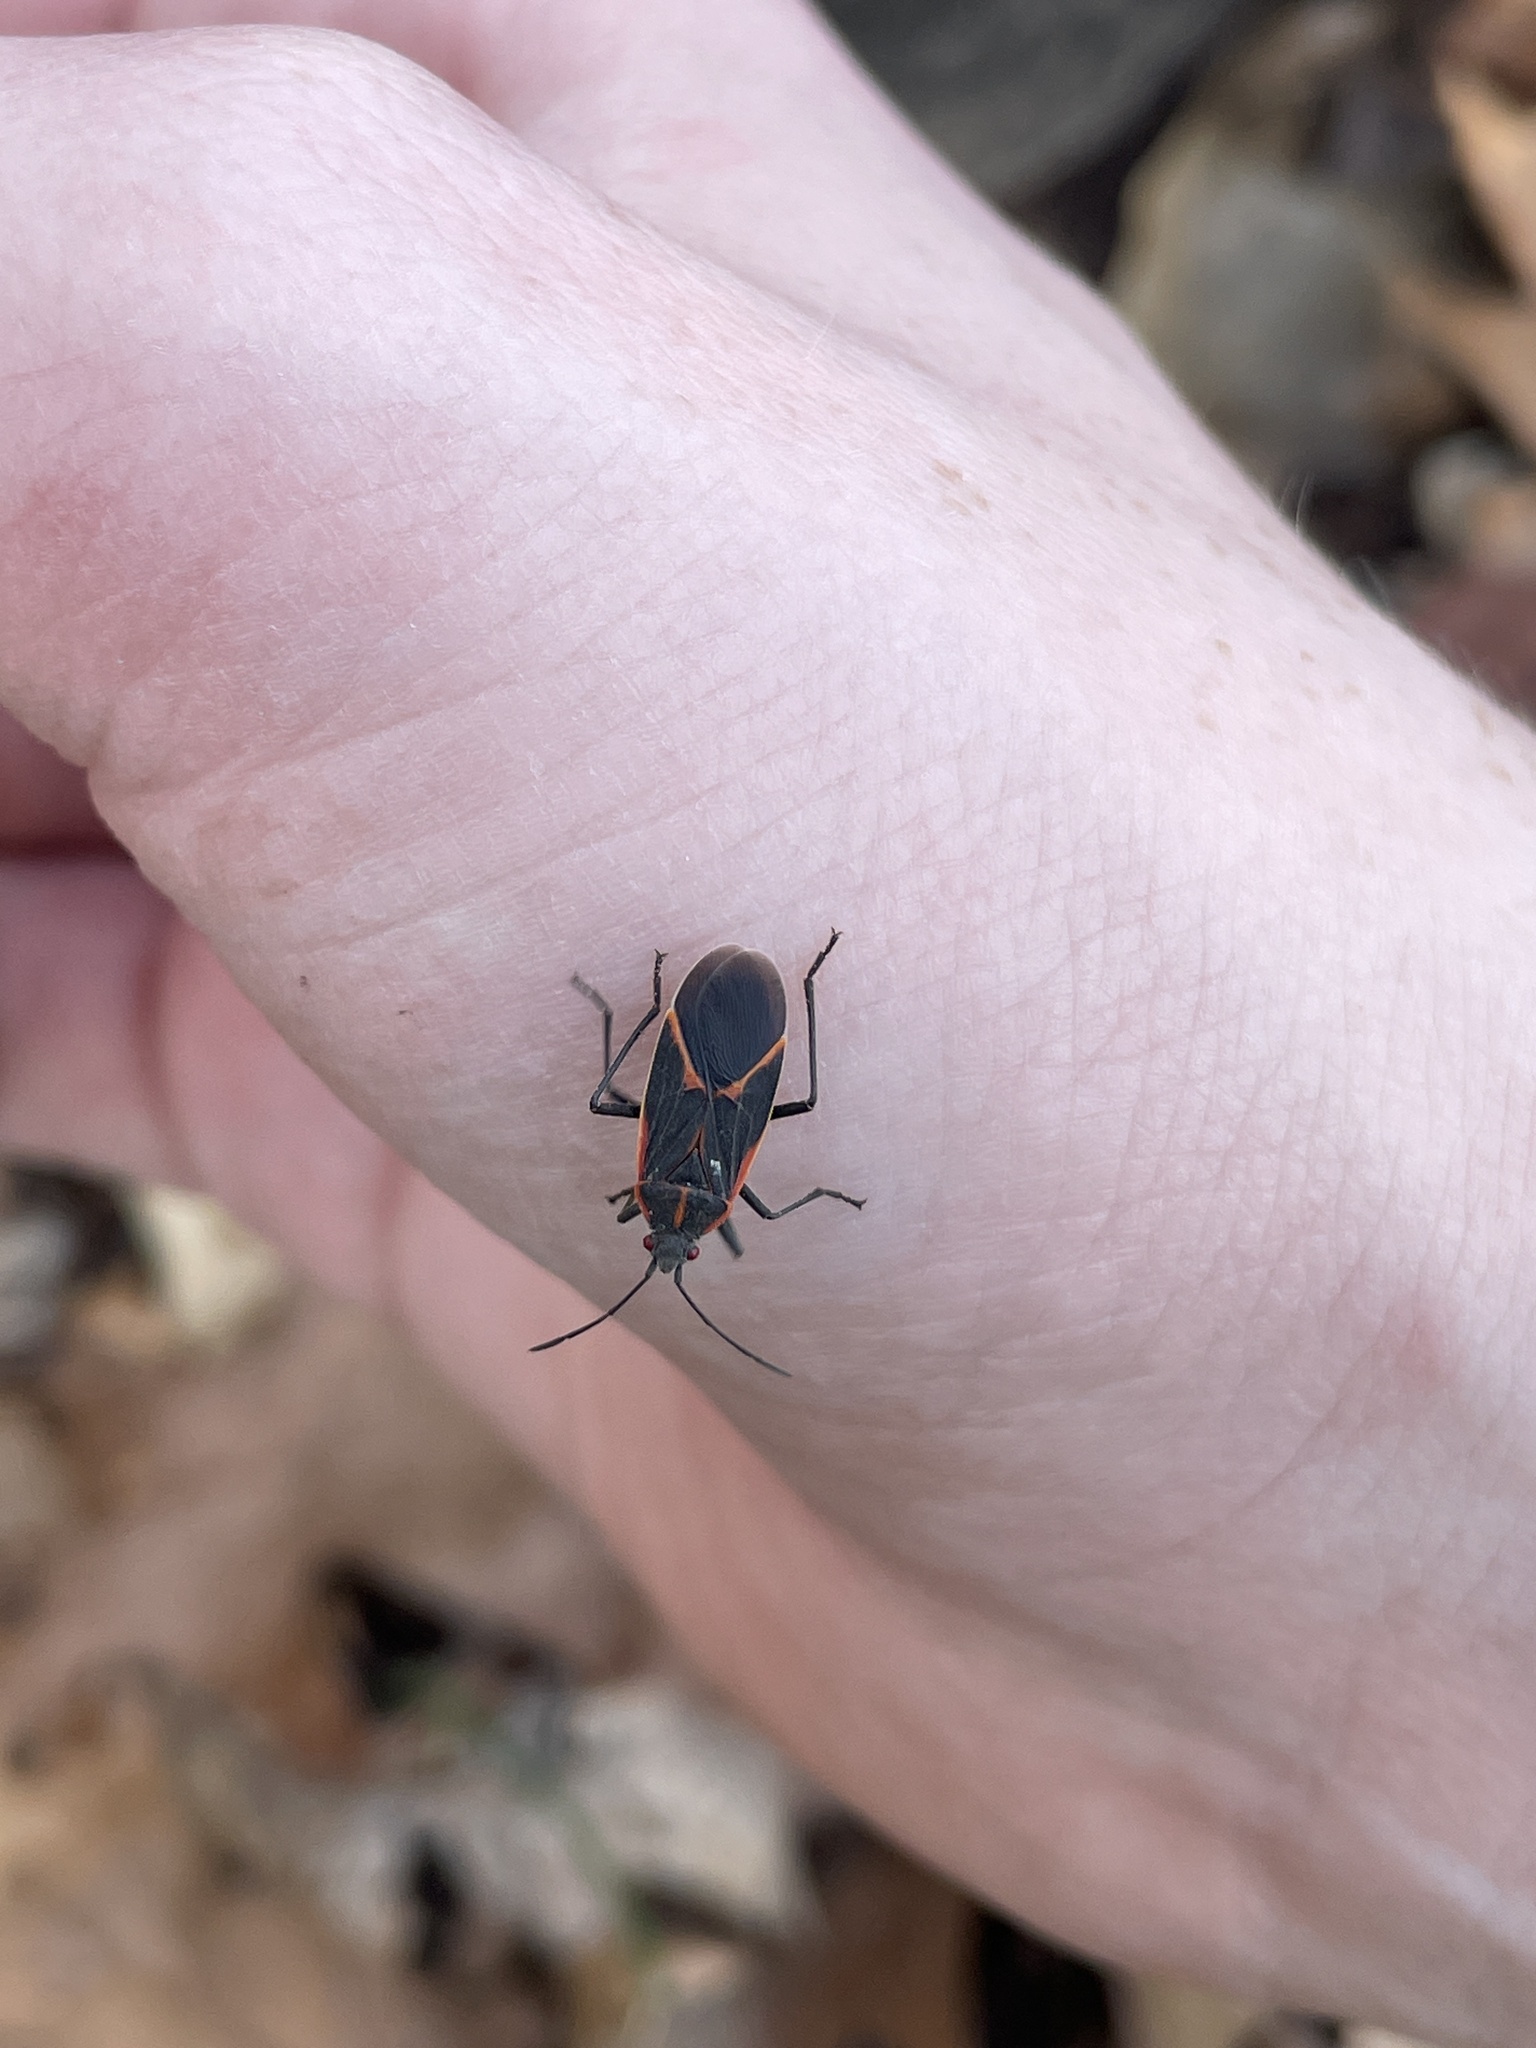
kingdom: Animalia
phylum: Arthropoda
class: Insecta
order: Hemiptera
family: Rhopalidae
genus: Boisea
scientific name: Boisea trivittata
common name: Boxelder bug
